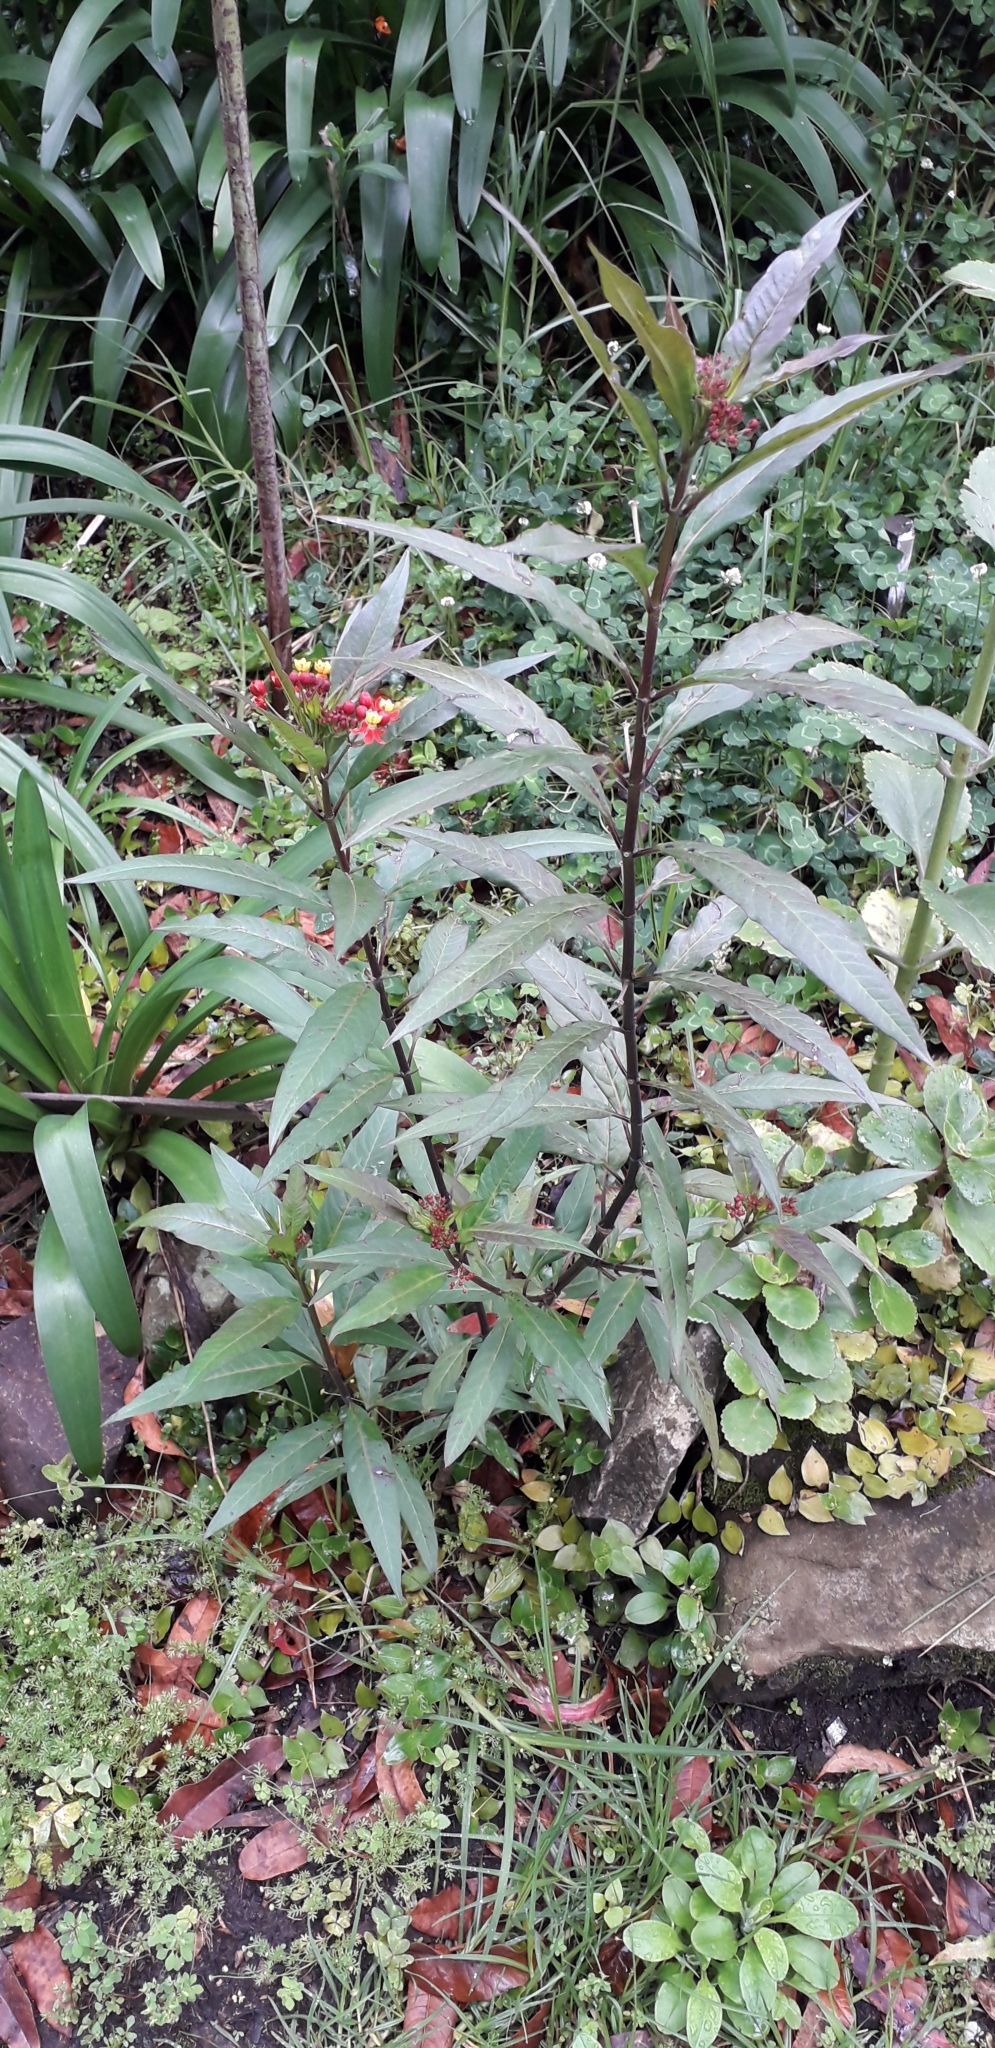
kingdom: Plantae
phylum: Tracheophyta
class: Magnoliopsida
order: Gentianales
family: Apocynaceae
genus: Asclepias
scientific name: Asclepias curassavica
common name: Bloodflower
